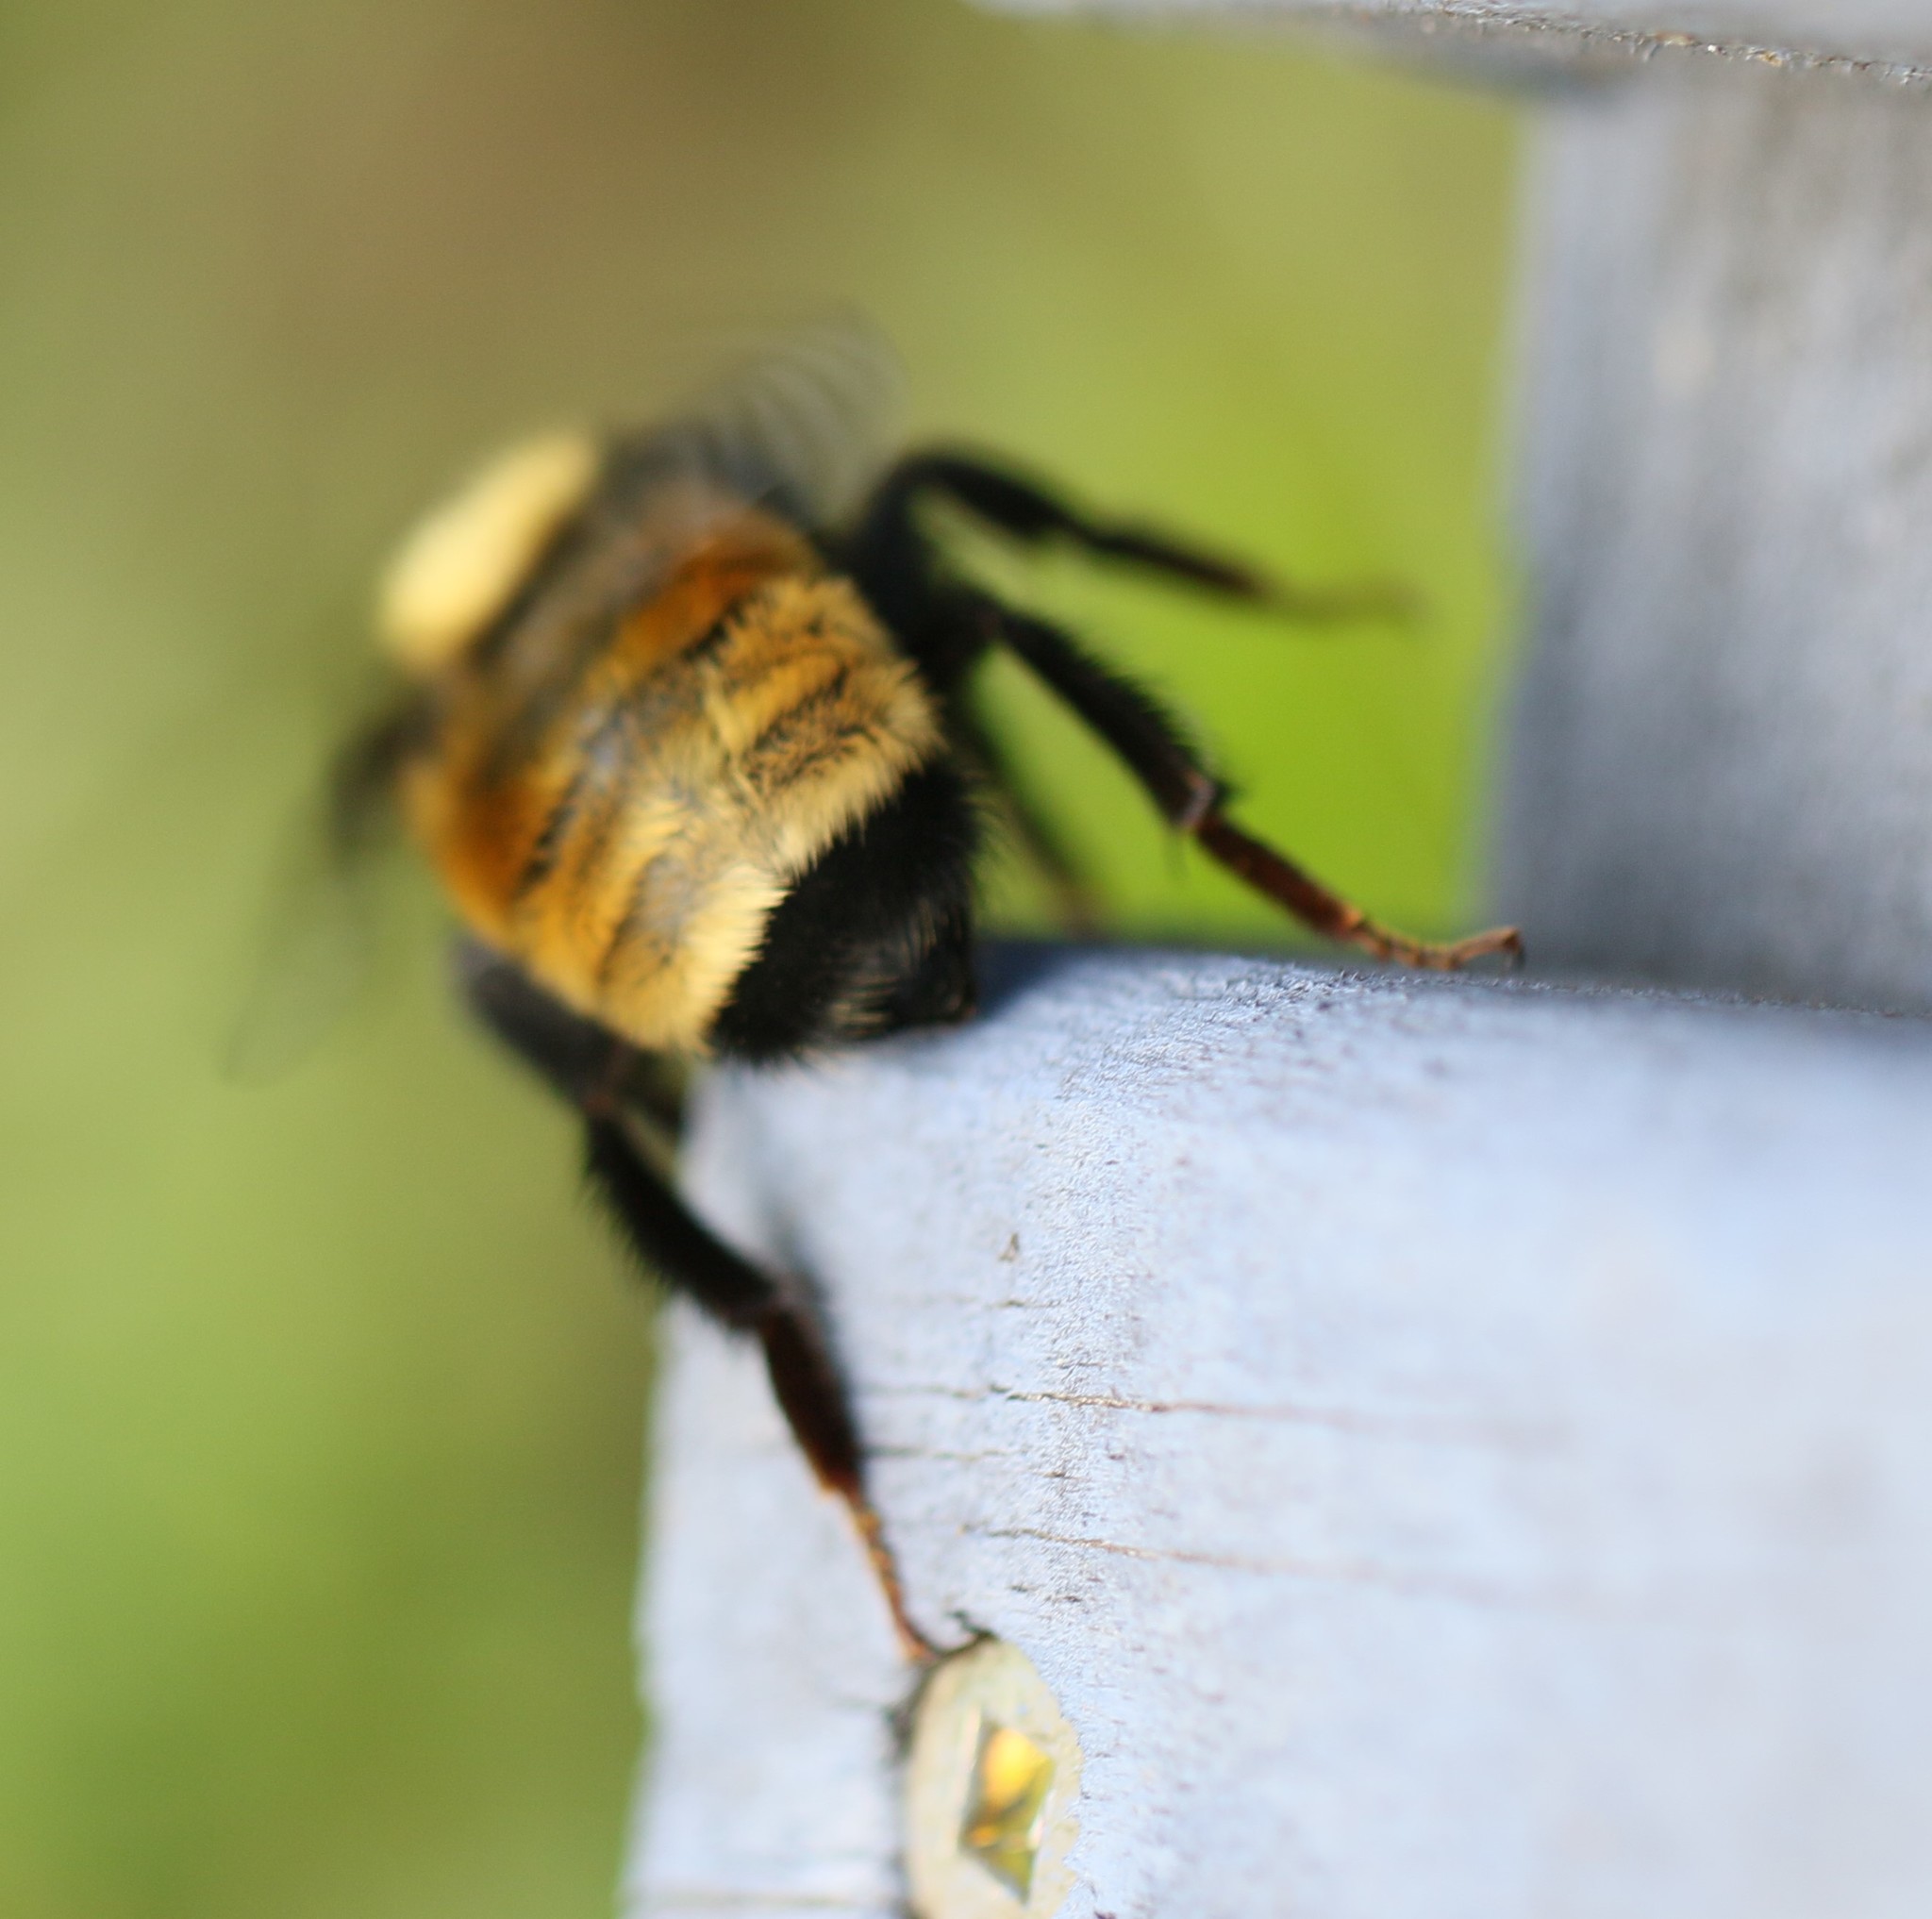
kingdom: Animalia
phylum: Arthropoda
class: Insecta
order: Hymenoptera
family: Apidae
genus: Bombus
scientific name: Bombus borealis
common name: Northern amber bumble bee
